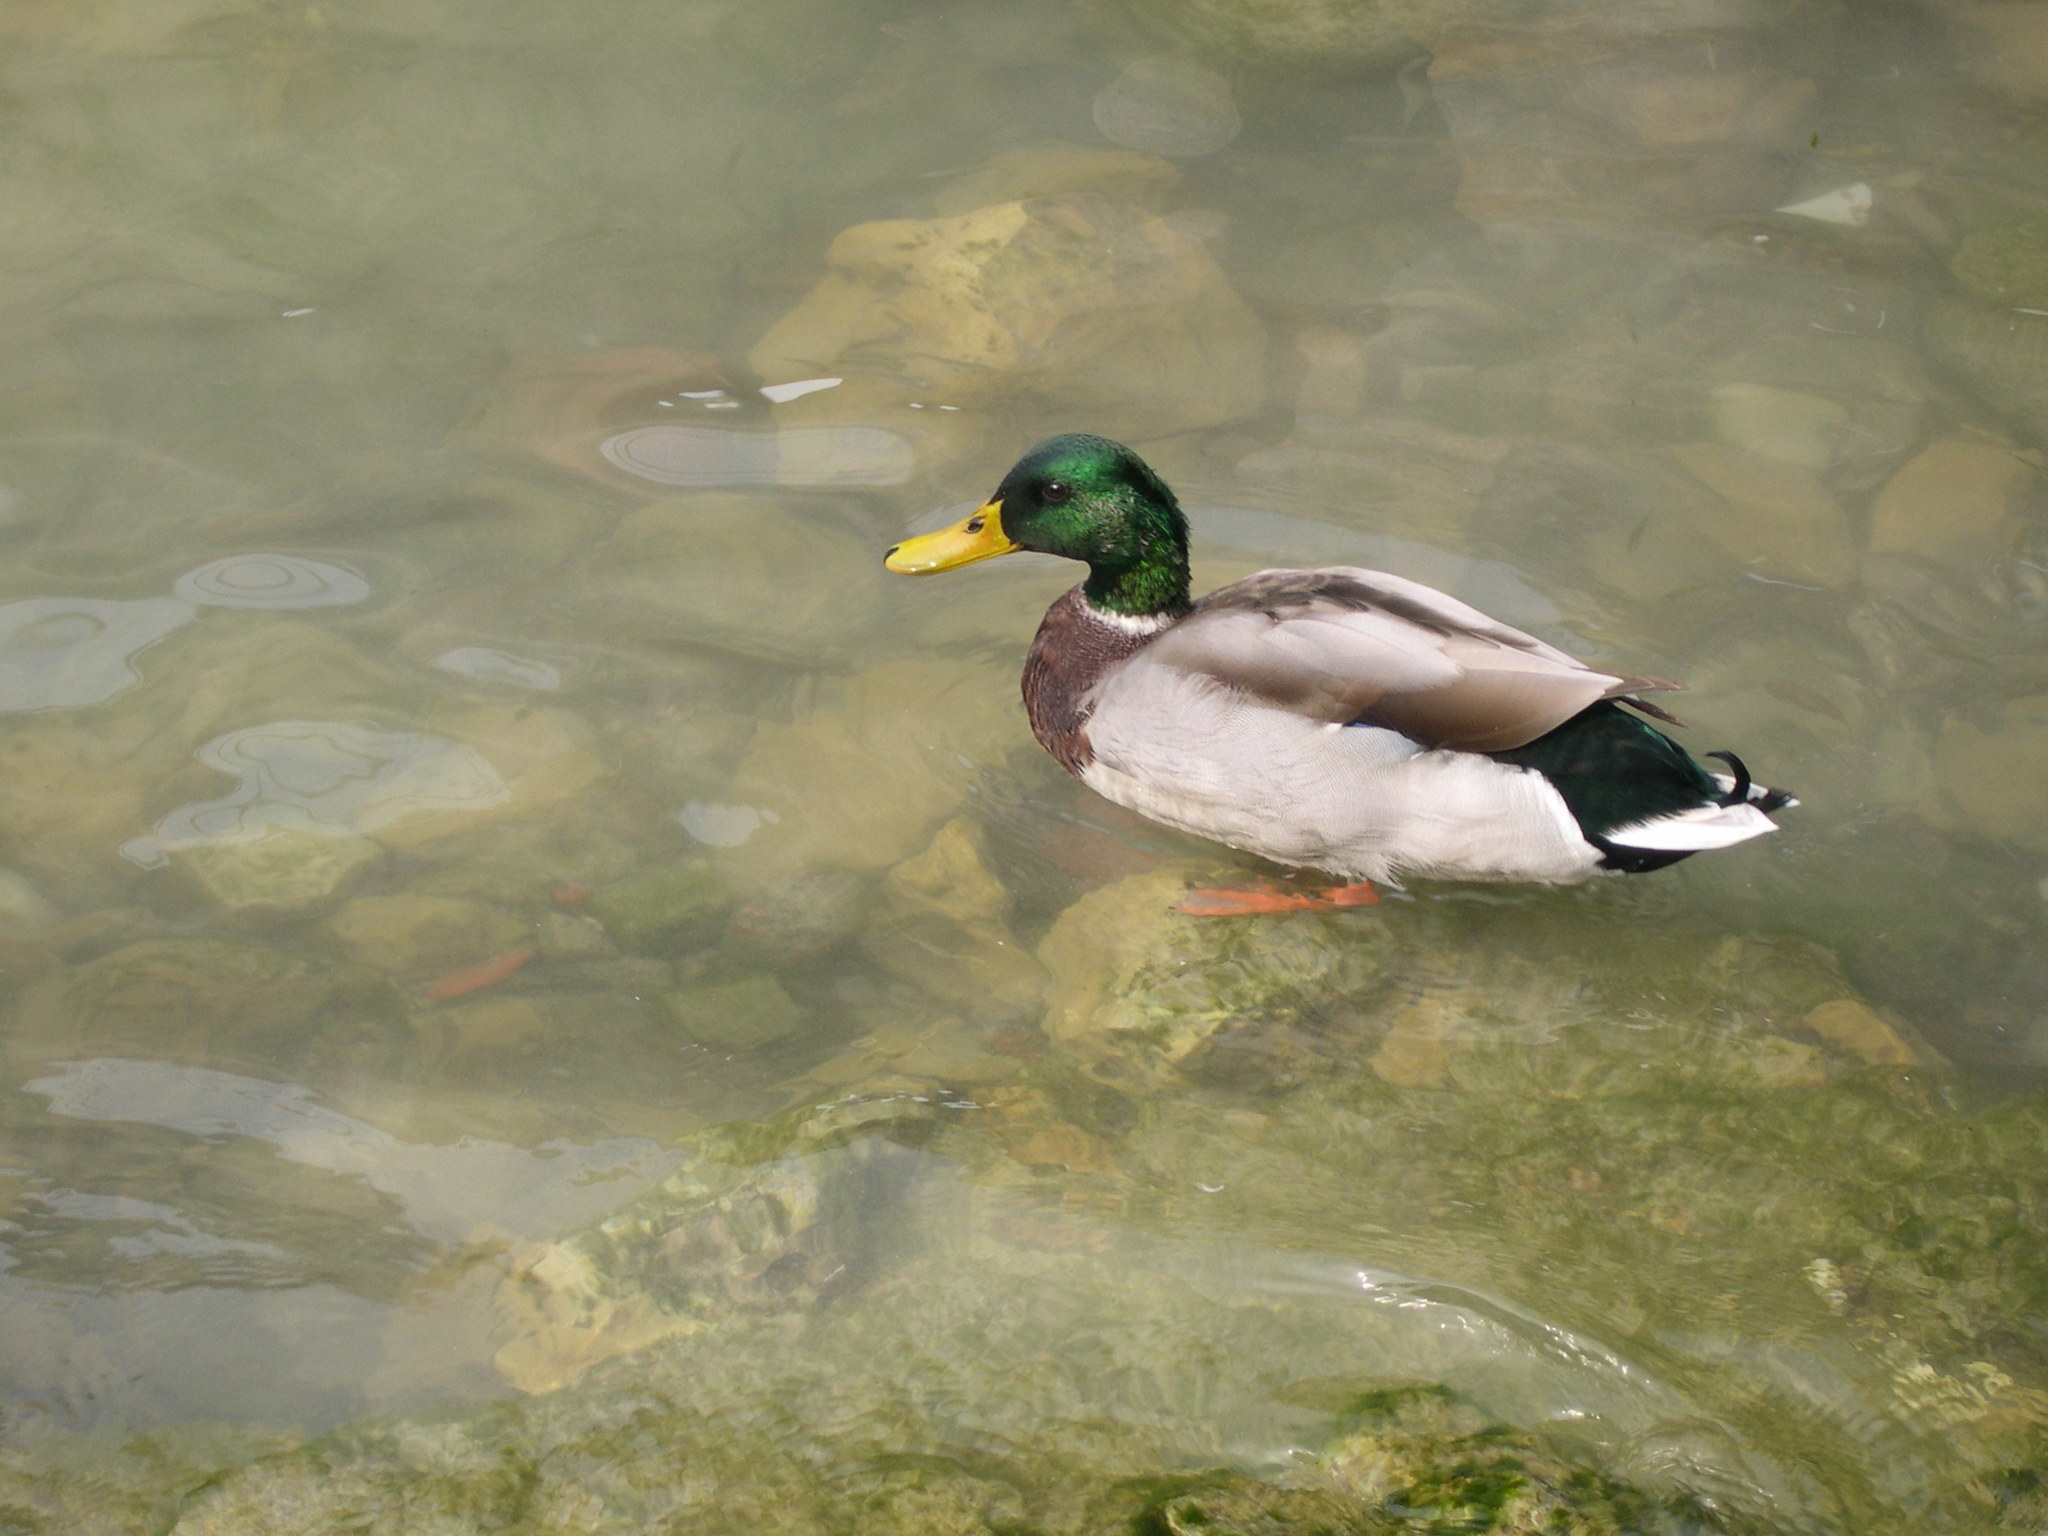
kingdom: Animalia
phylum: Chordata
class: Aves
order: Anseriformes
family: Anatidae
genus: Anas
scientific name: Anas platyrhynchos
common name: Mallard
